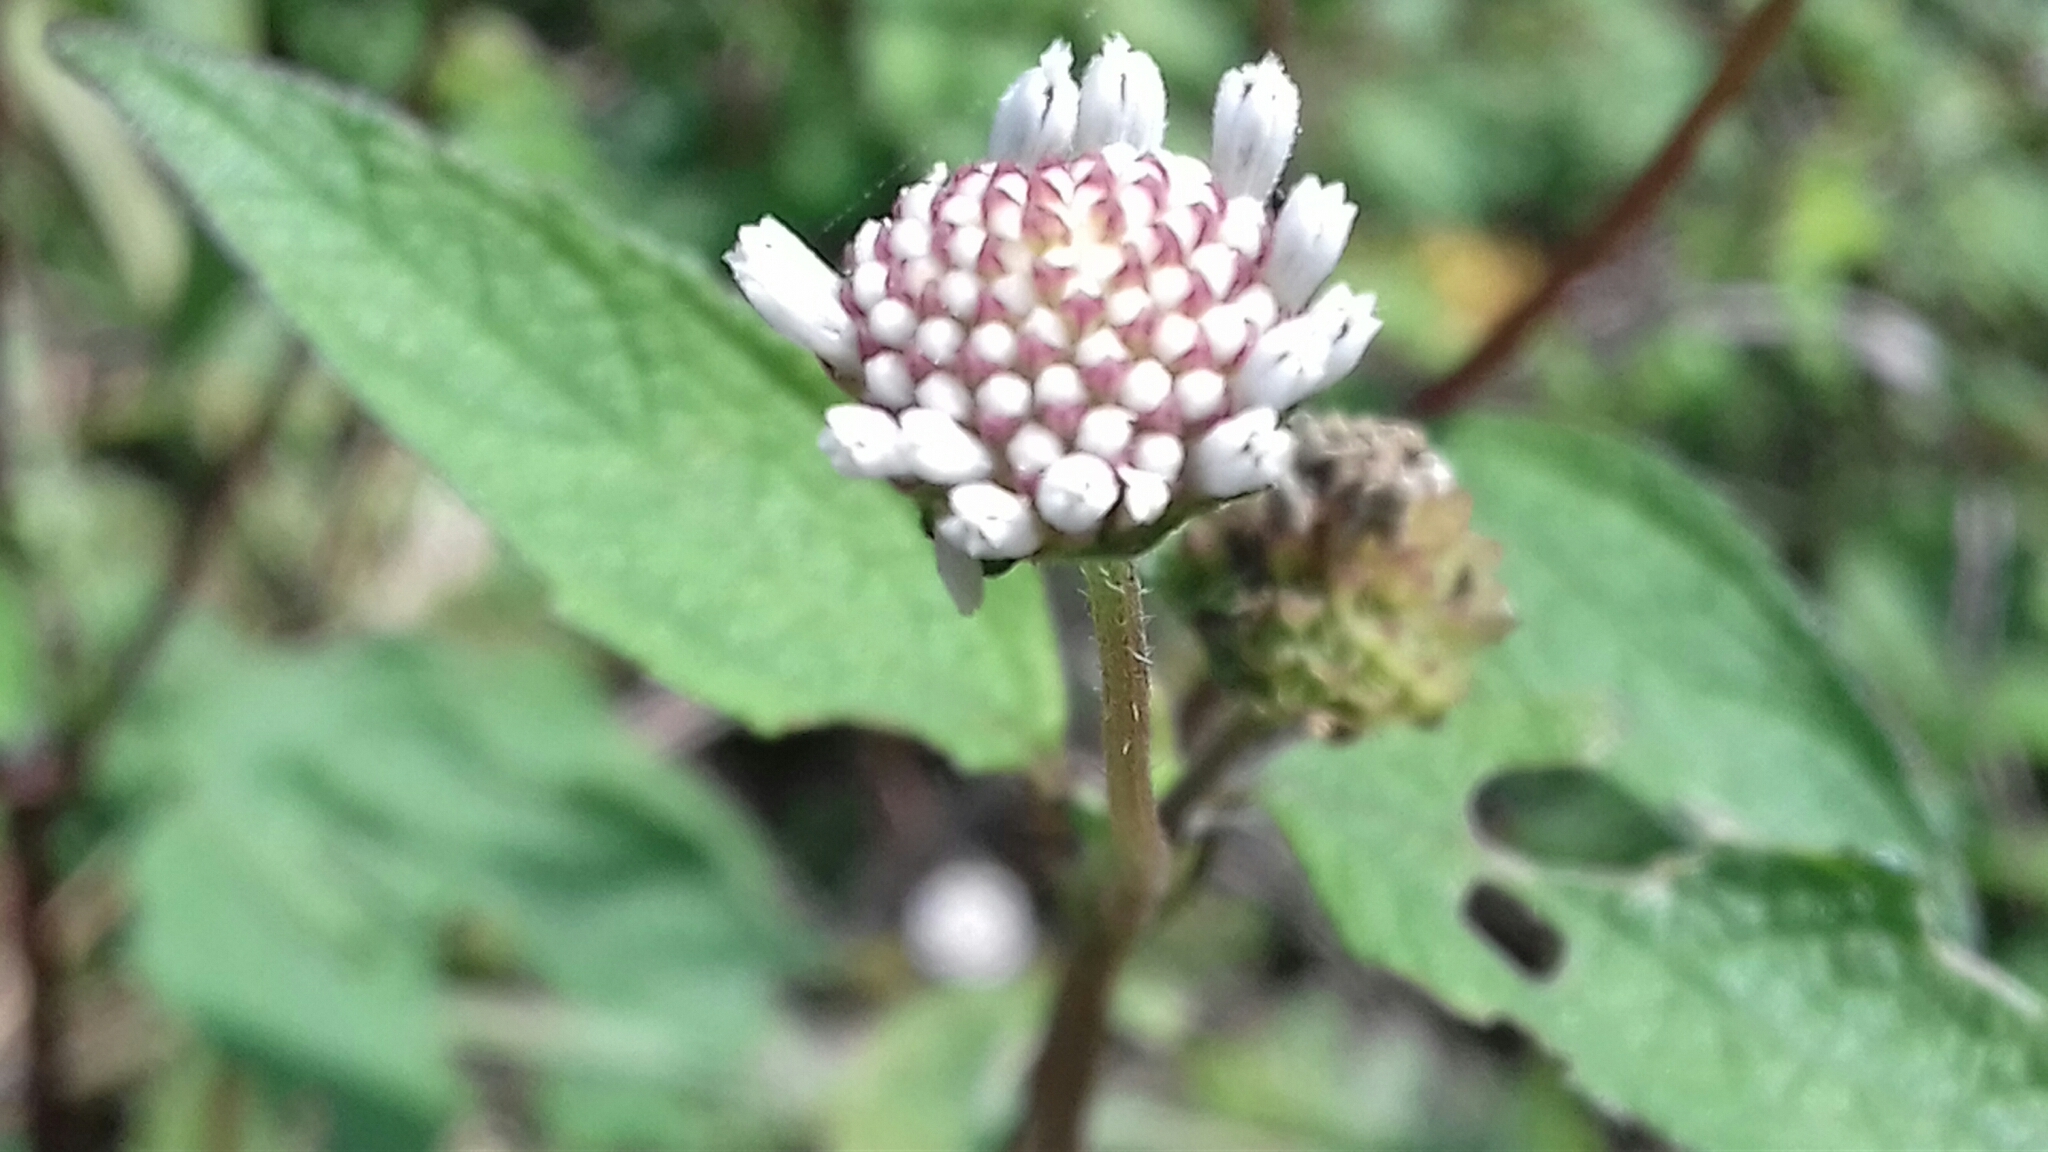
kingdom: Plantae
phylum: Tracheophyta
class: Magnoliopsida
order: Asterales
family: Asteraceae
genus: Melanthera
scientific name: Melanthera nivea
